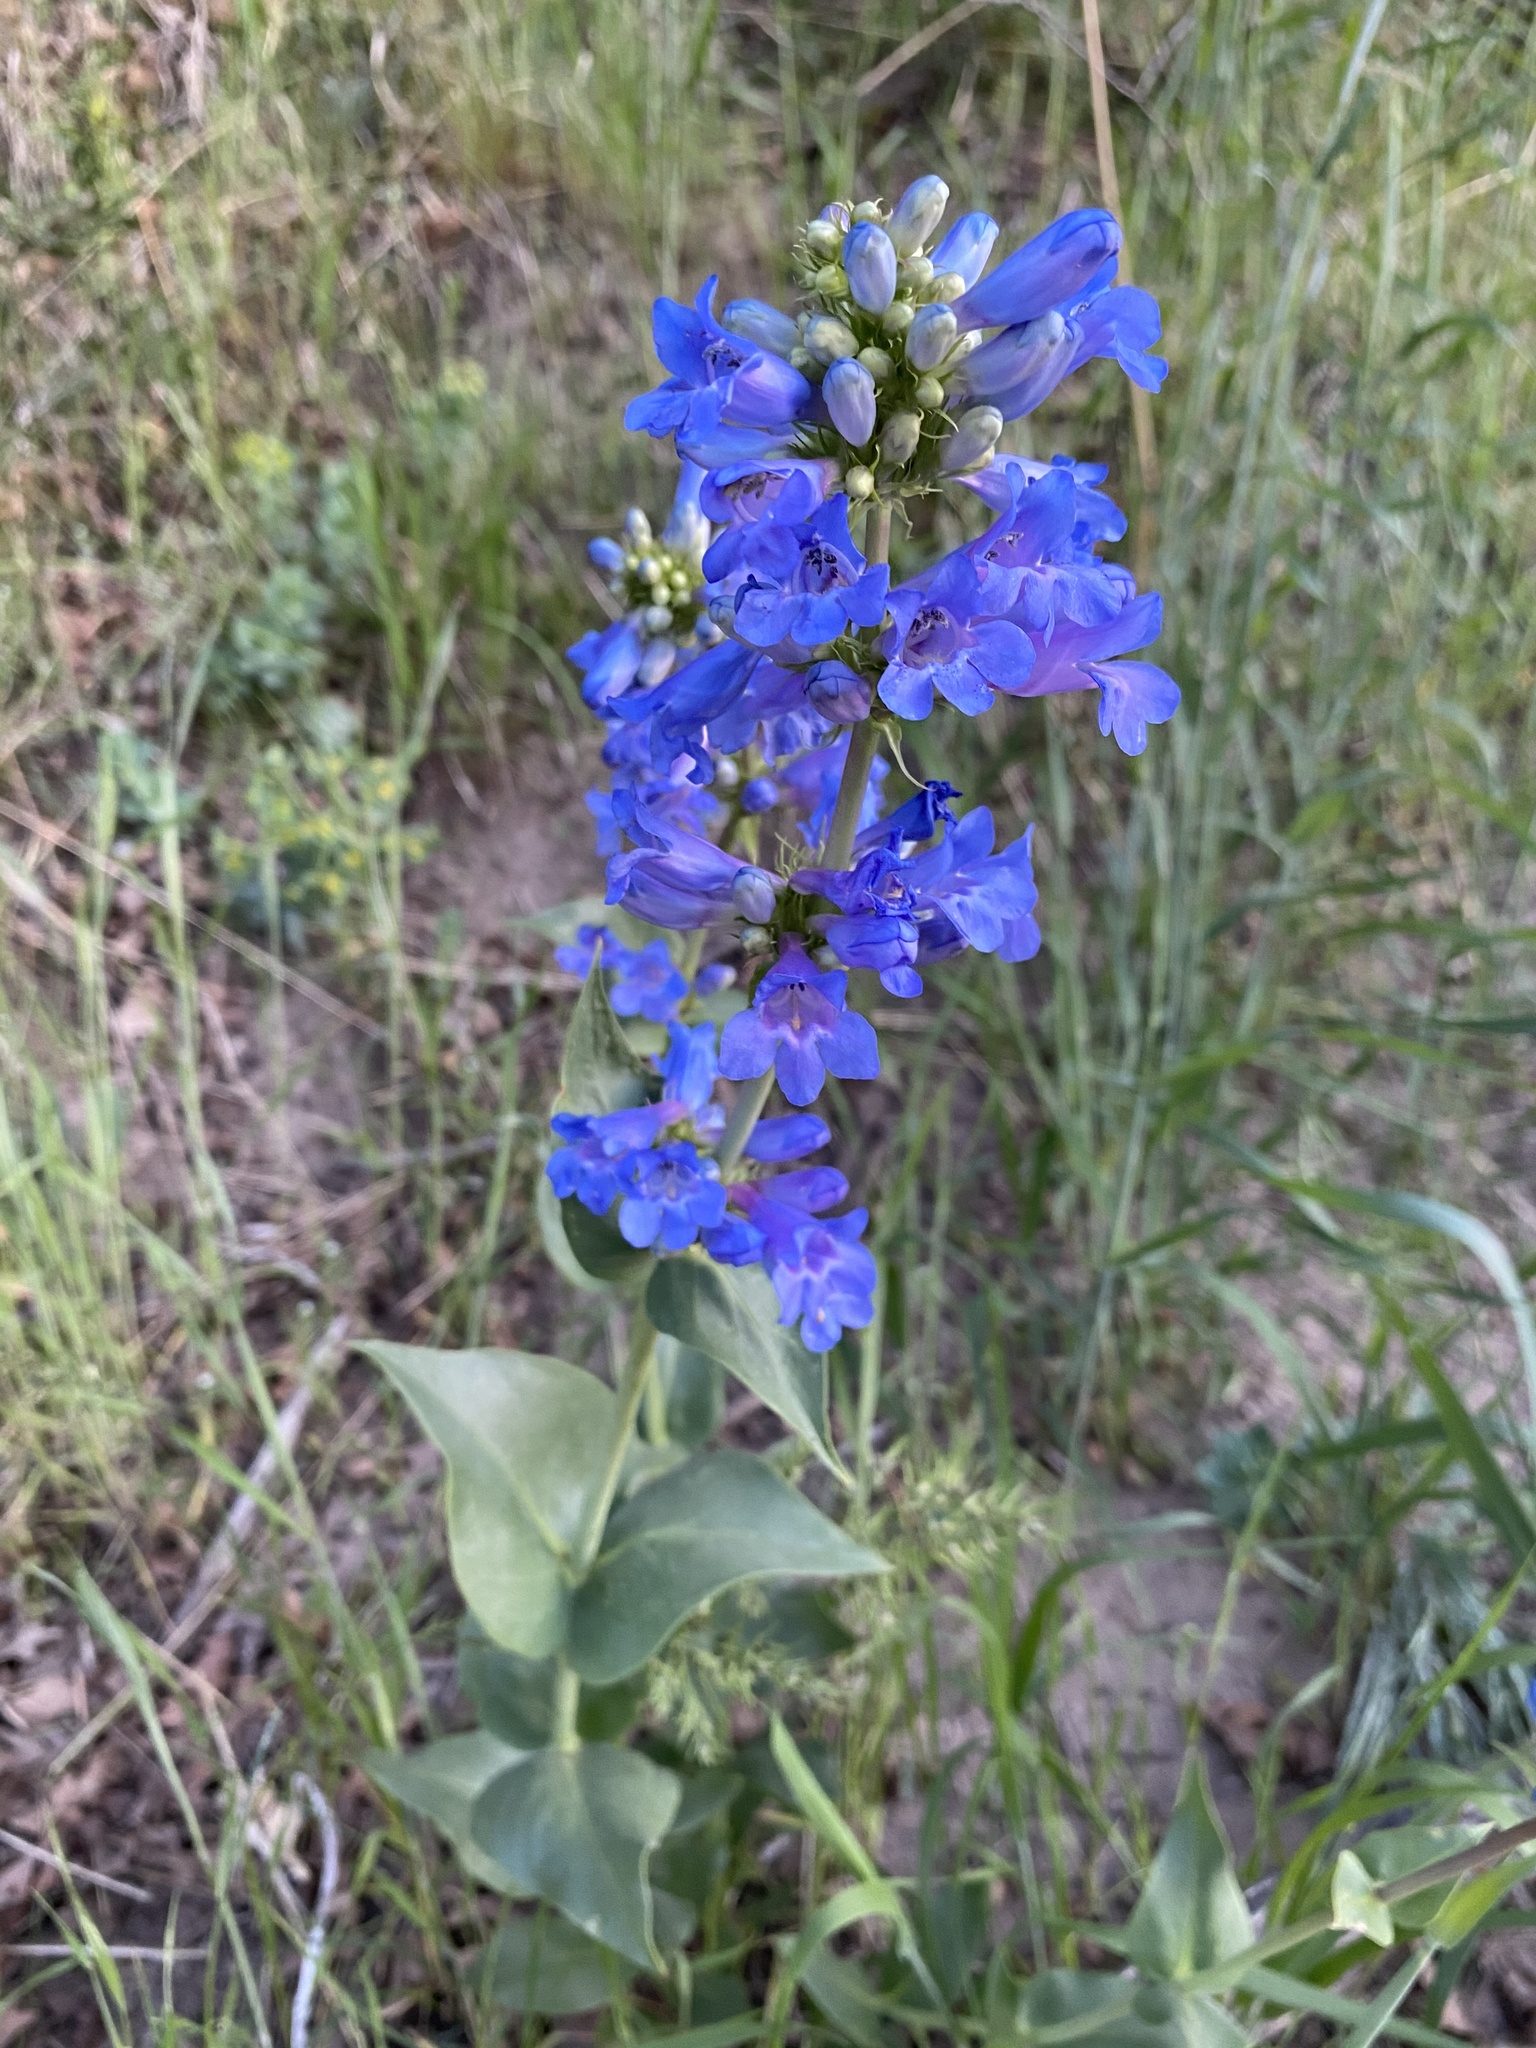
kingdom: Plantae
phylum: Tracheophyta
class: Magnoliopsida
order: Lamiales
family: Plantaginaceae
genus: Penstemon
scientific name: Penstemon cyananthus
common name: Wasatch penstemon
